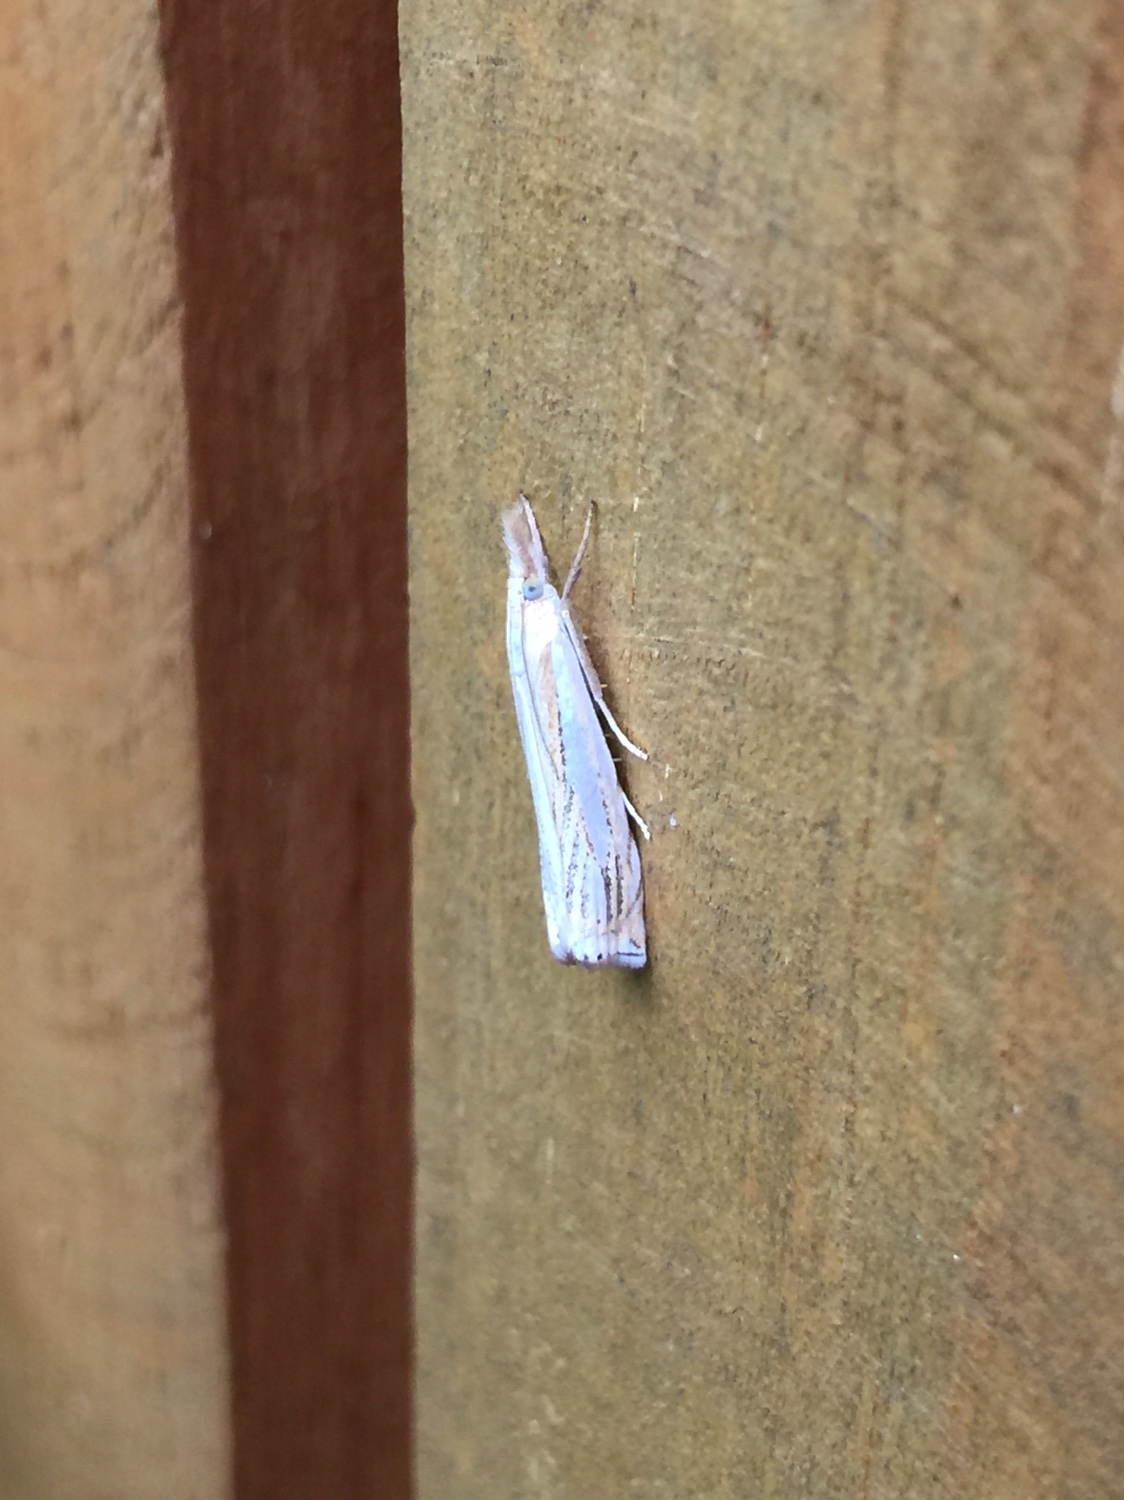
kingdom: Animalia
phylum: Arthropoda
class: Insecta
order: Lepidoptera
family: Crambidae
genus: Crambus
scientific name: Crambus saltuellus
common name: Pasture grass-veneer
